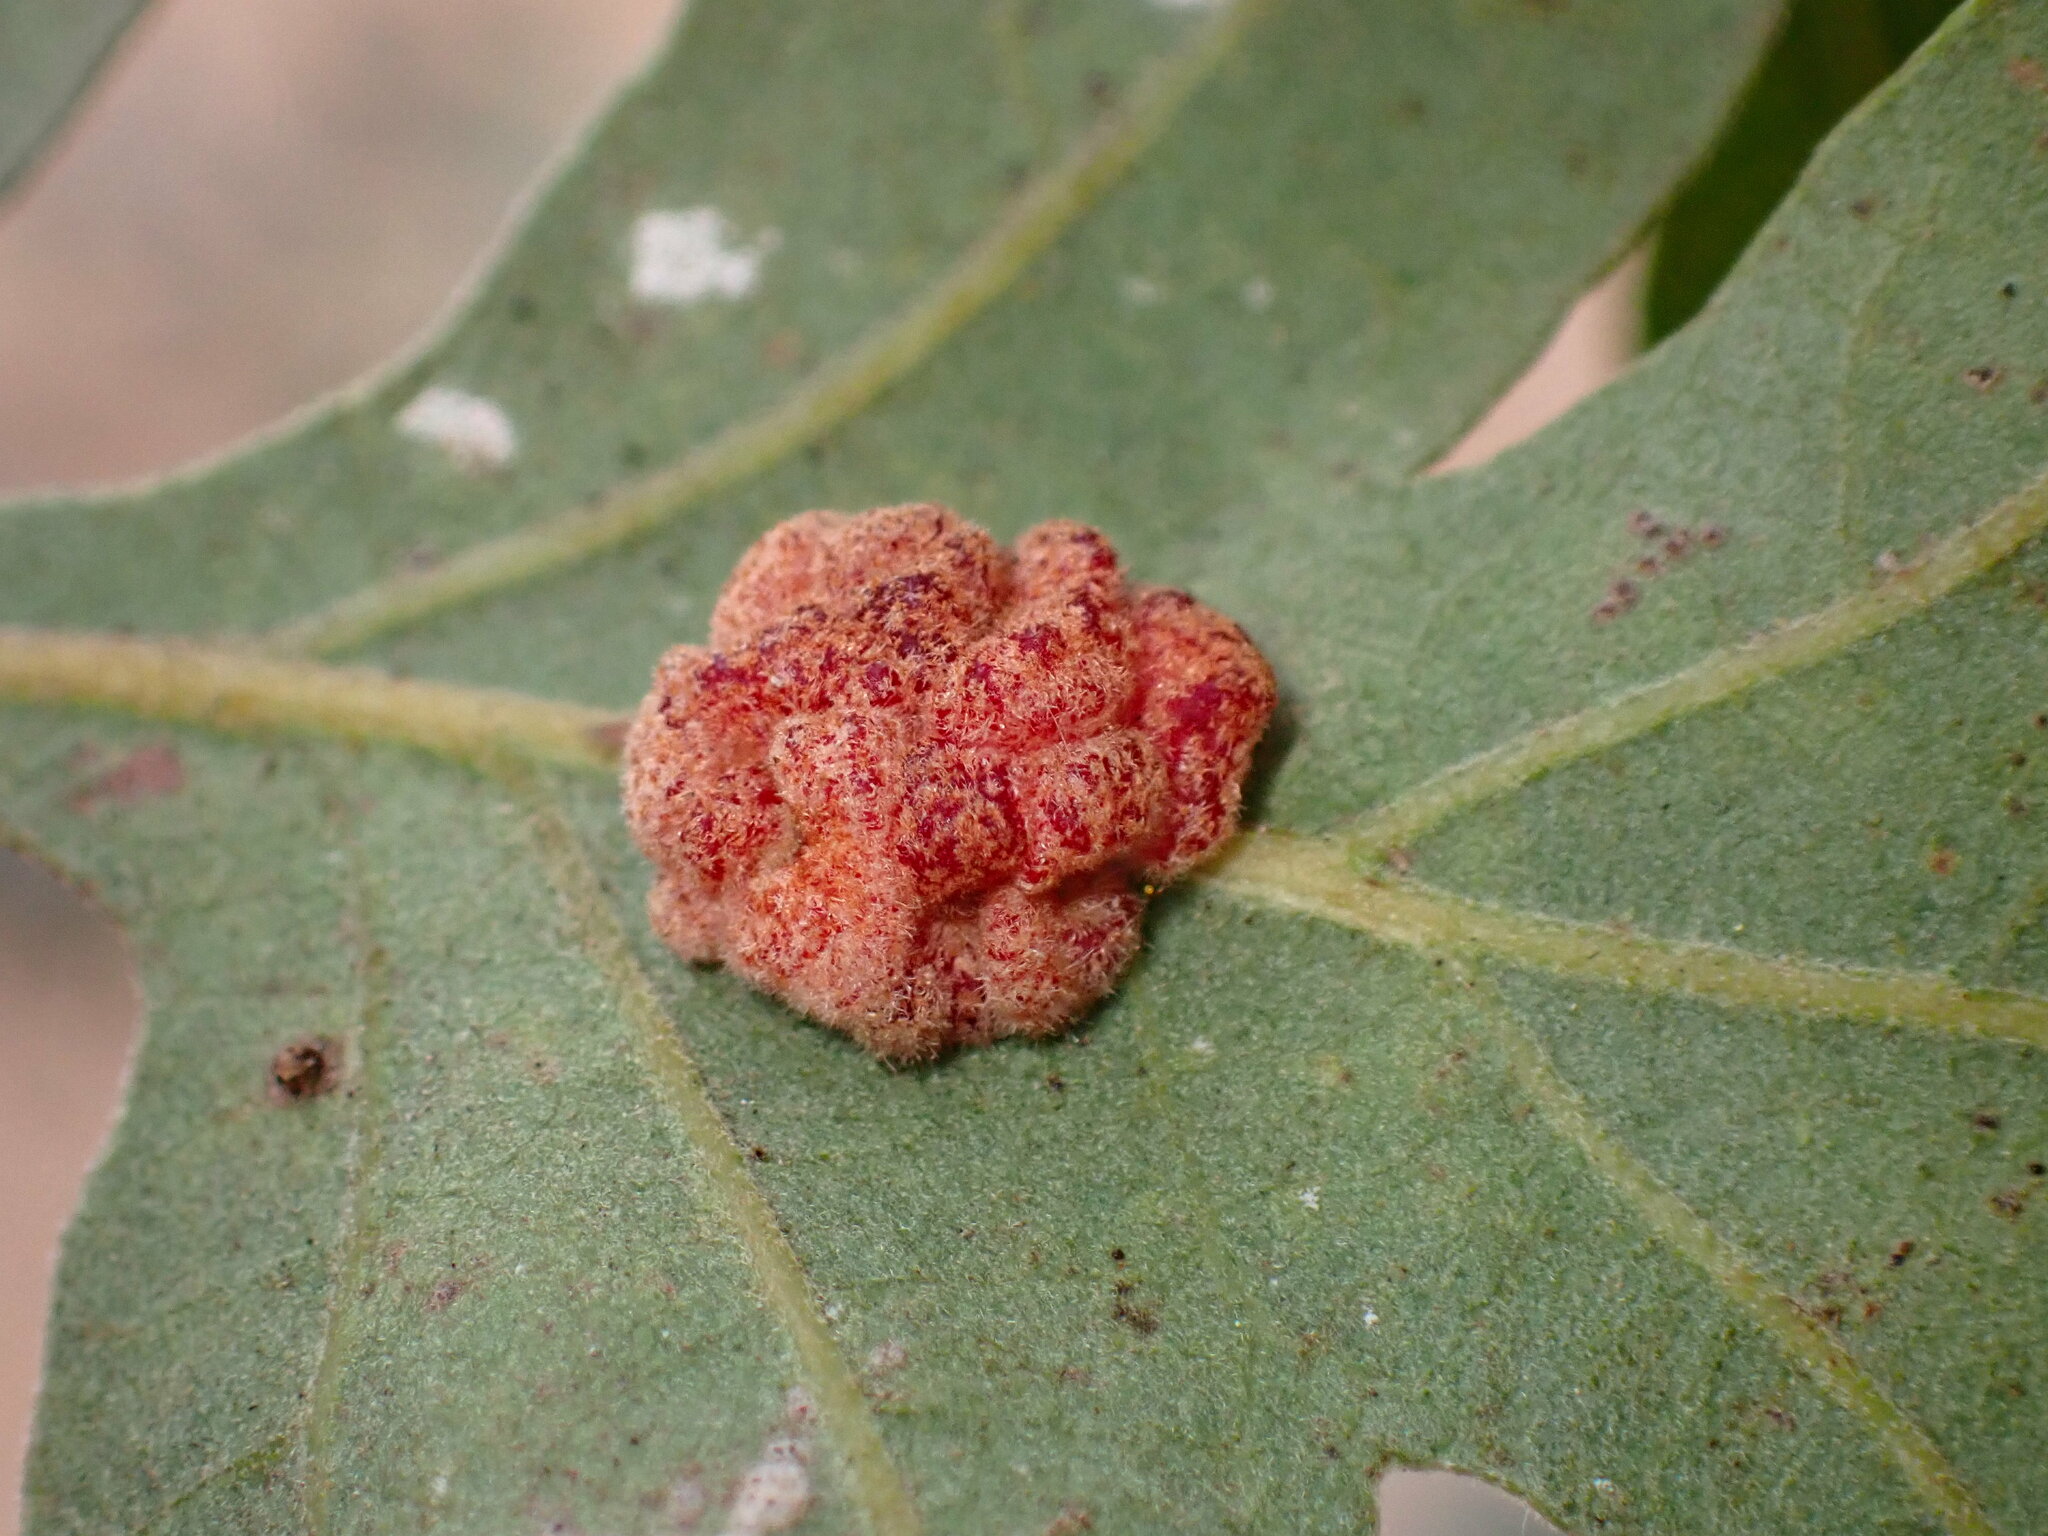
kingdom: Animalia
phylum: Arthropoda
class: Insecta
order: Hymenoptera
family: Cynipidae
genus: Andricus
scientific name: Andricus
